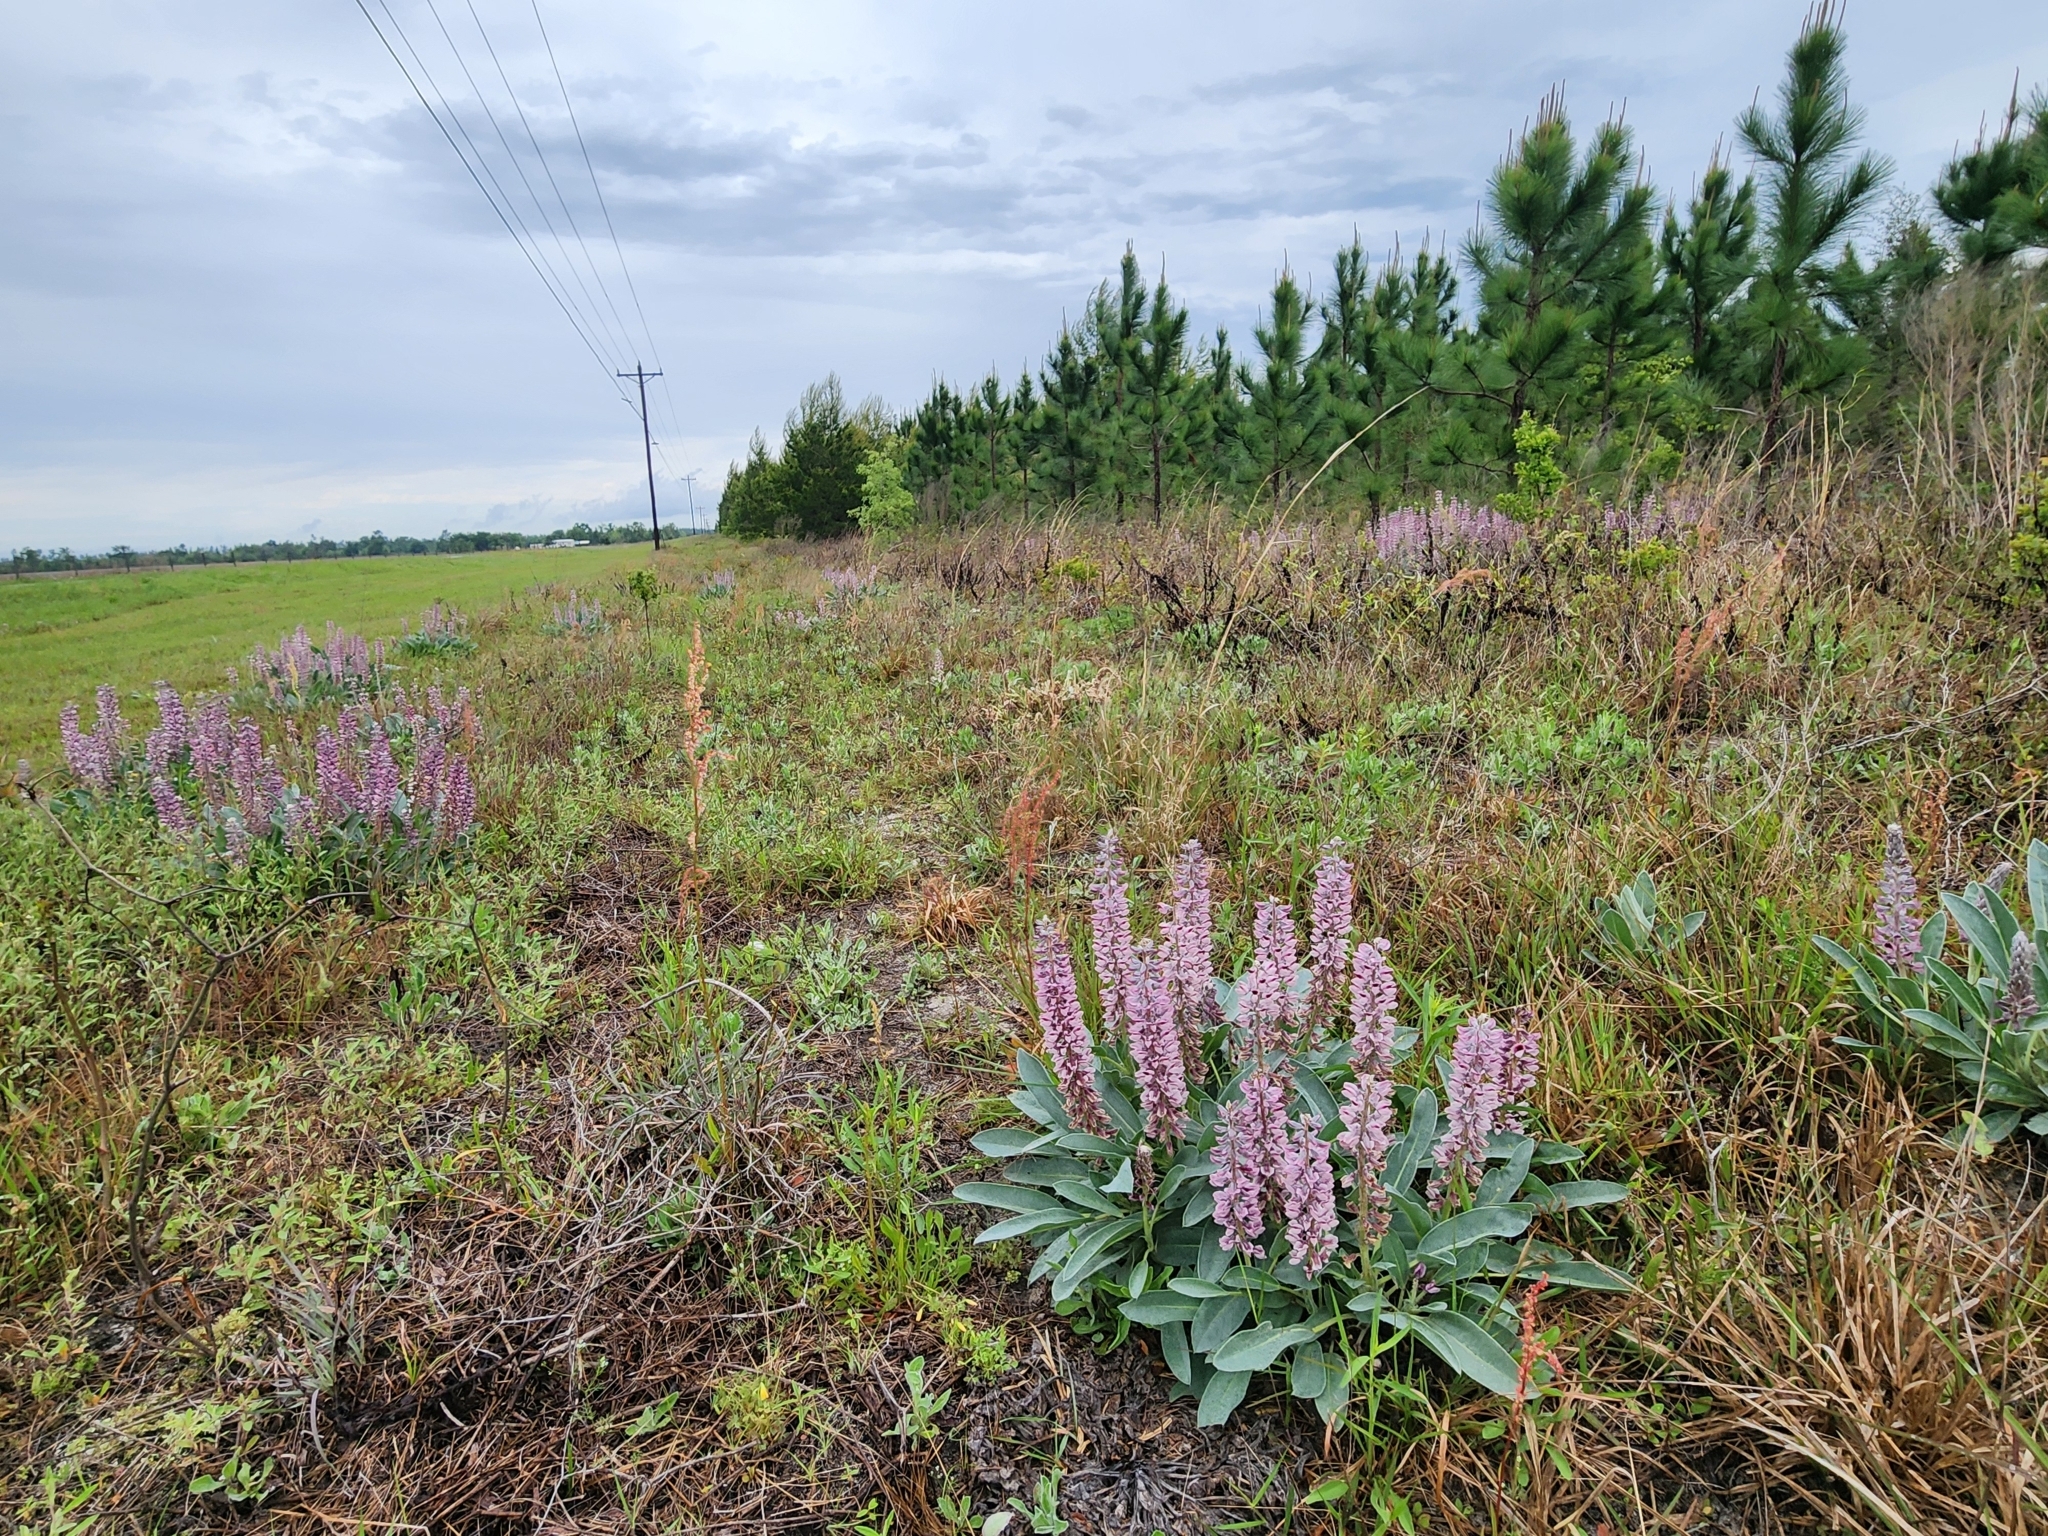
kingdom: Plantae
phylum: Tracheophyta
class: Magnoliopsida
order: Fabales
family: Fabaceae
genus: Lupinus
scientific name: Lupinus villosus
